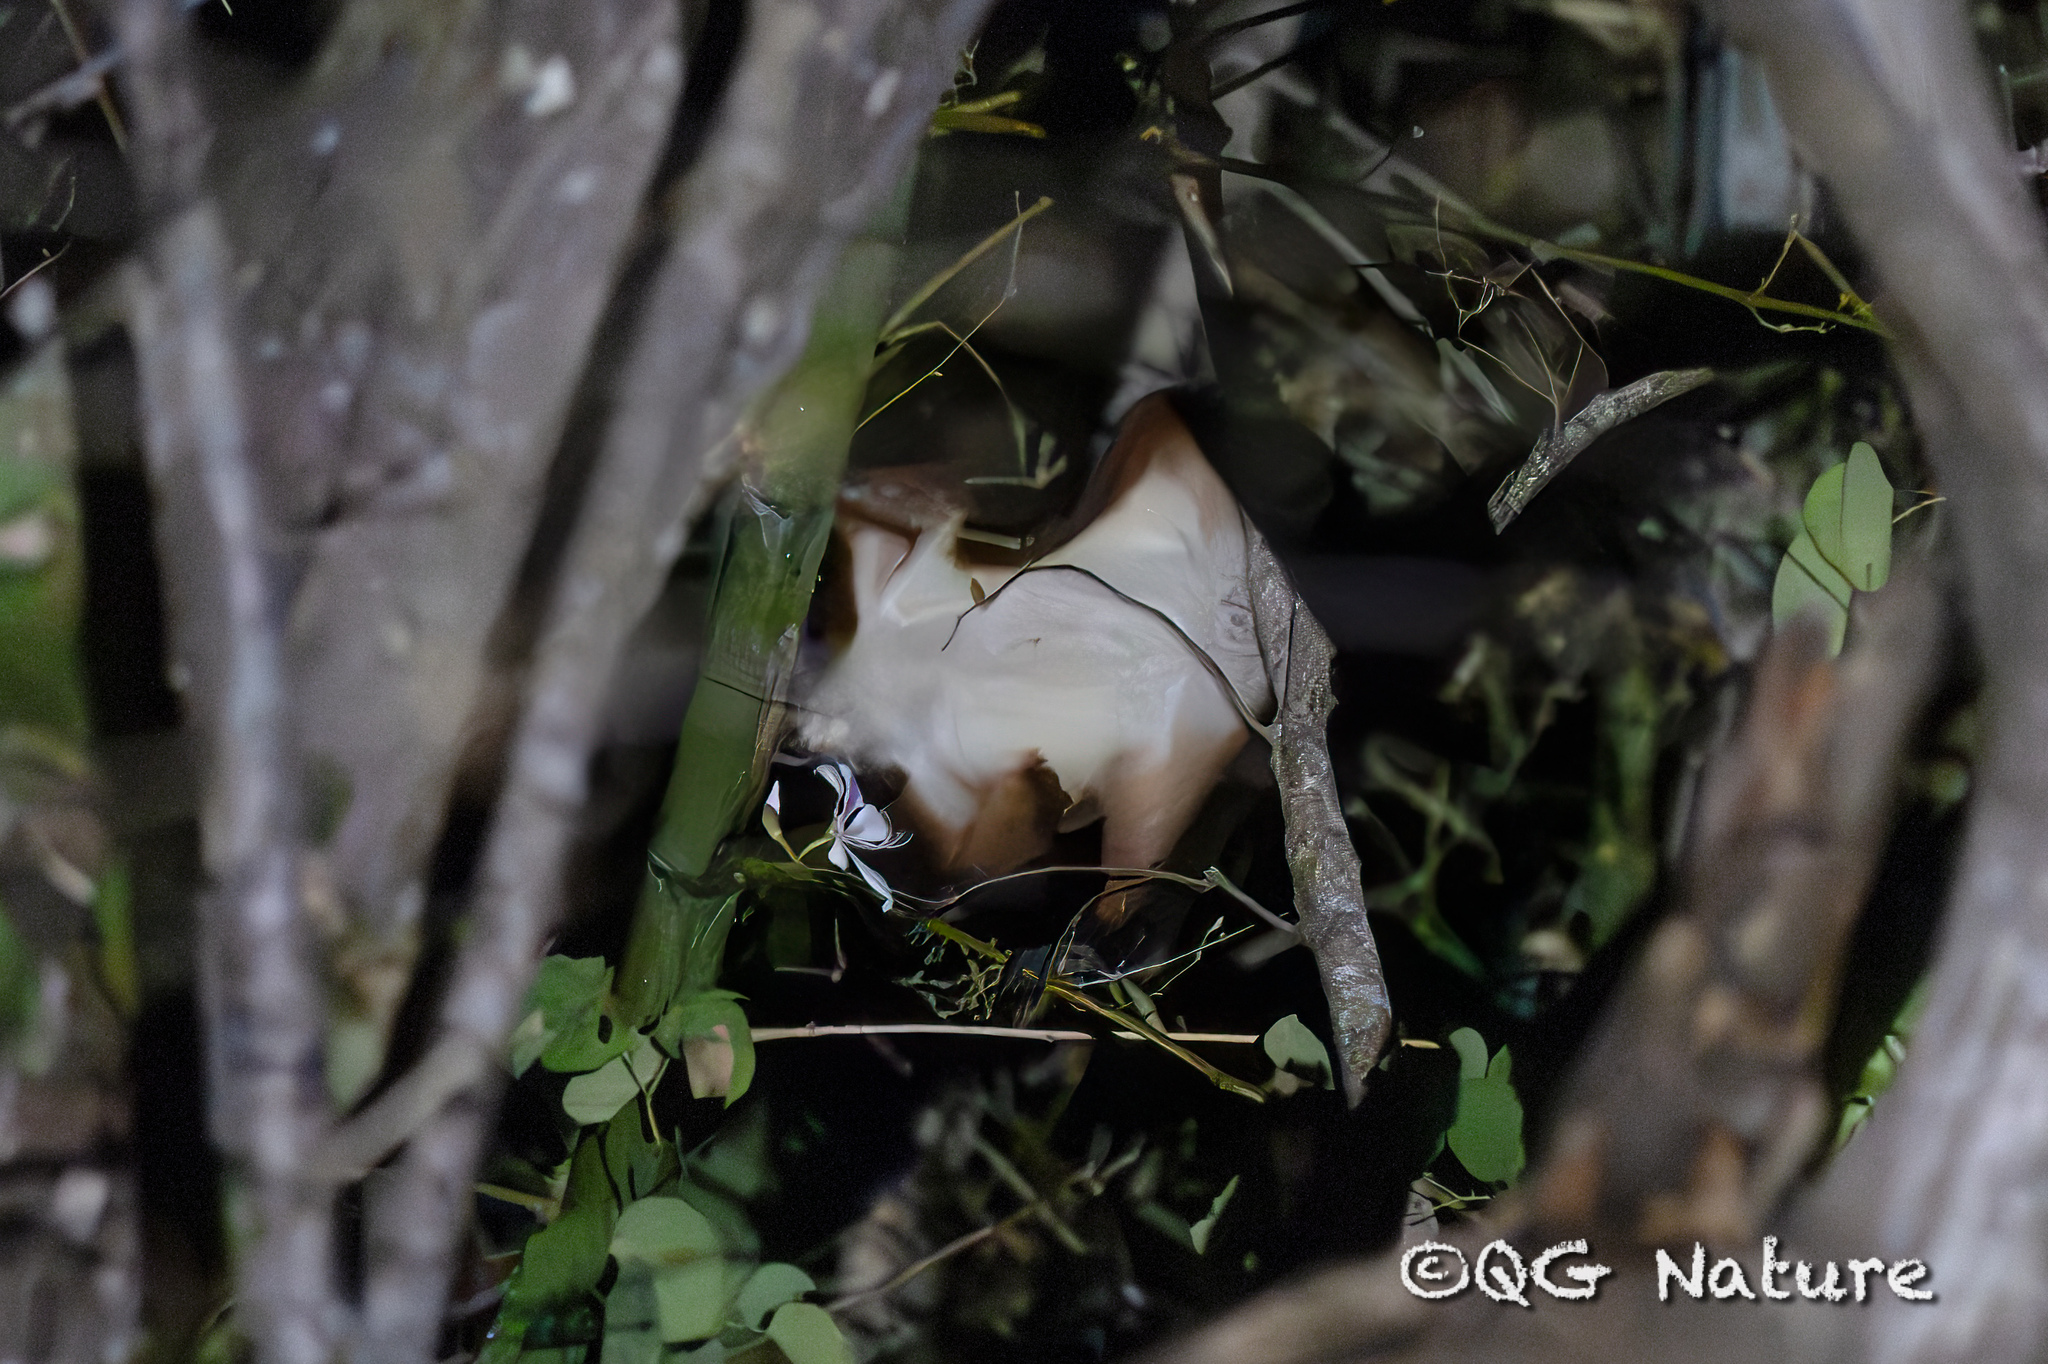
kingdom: Animalia
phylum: Chordata
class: Mammalia
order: Rodentia
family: Sciuridae
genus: Petaurista
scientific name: Petaurista philippensis
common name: Indian giant flying squirrel
